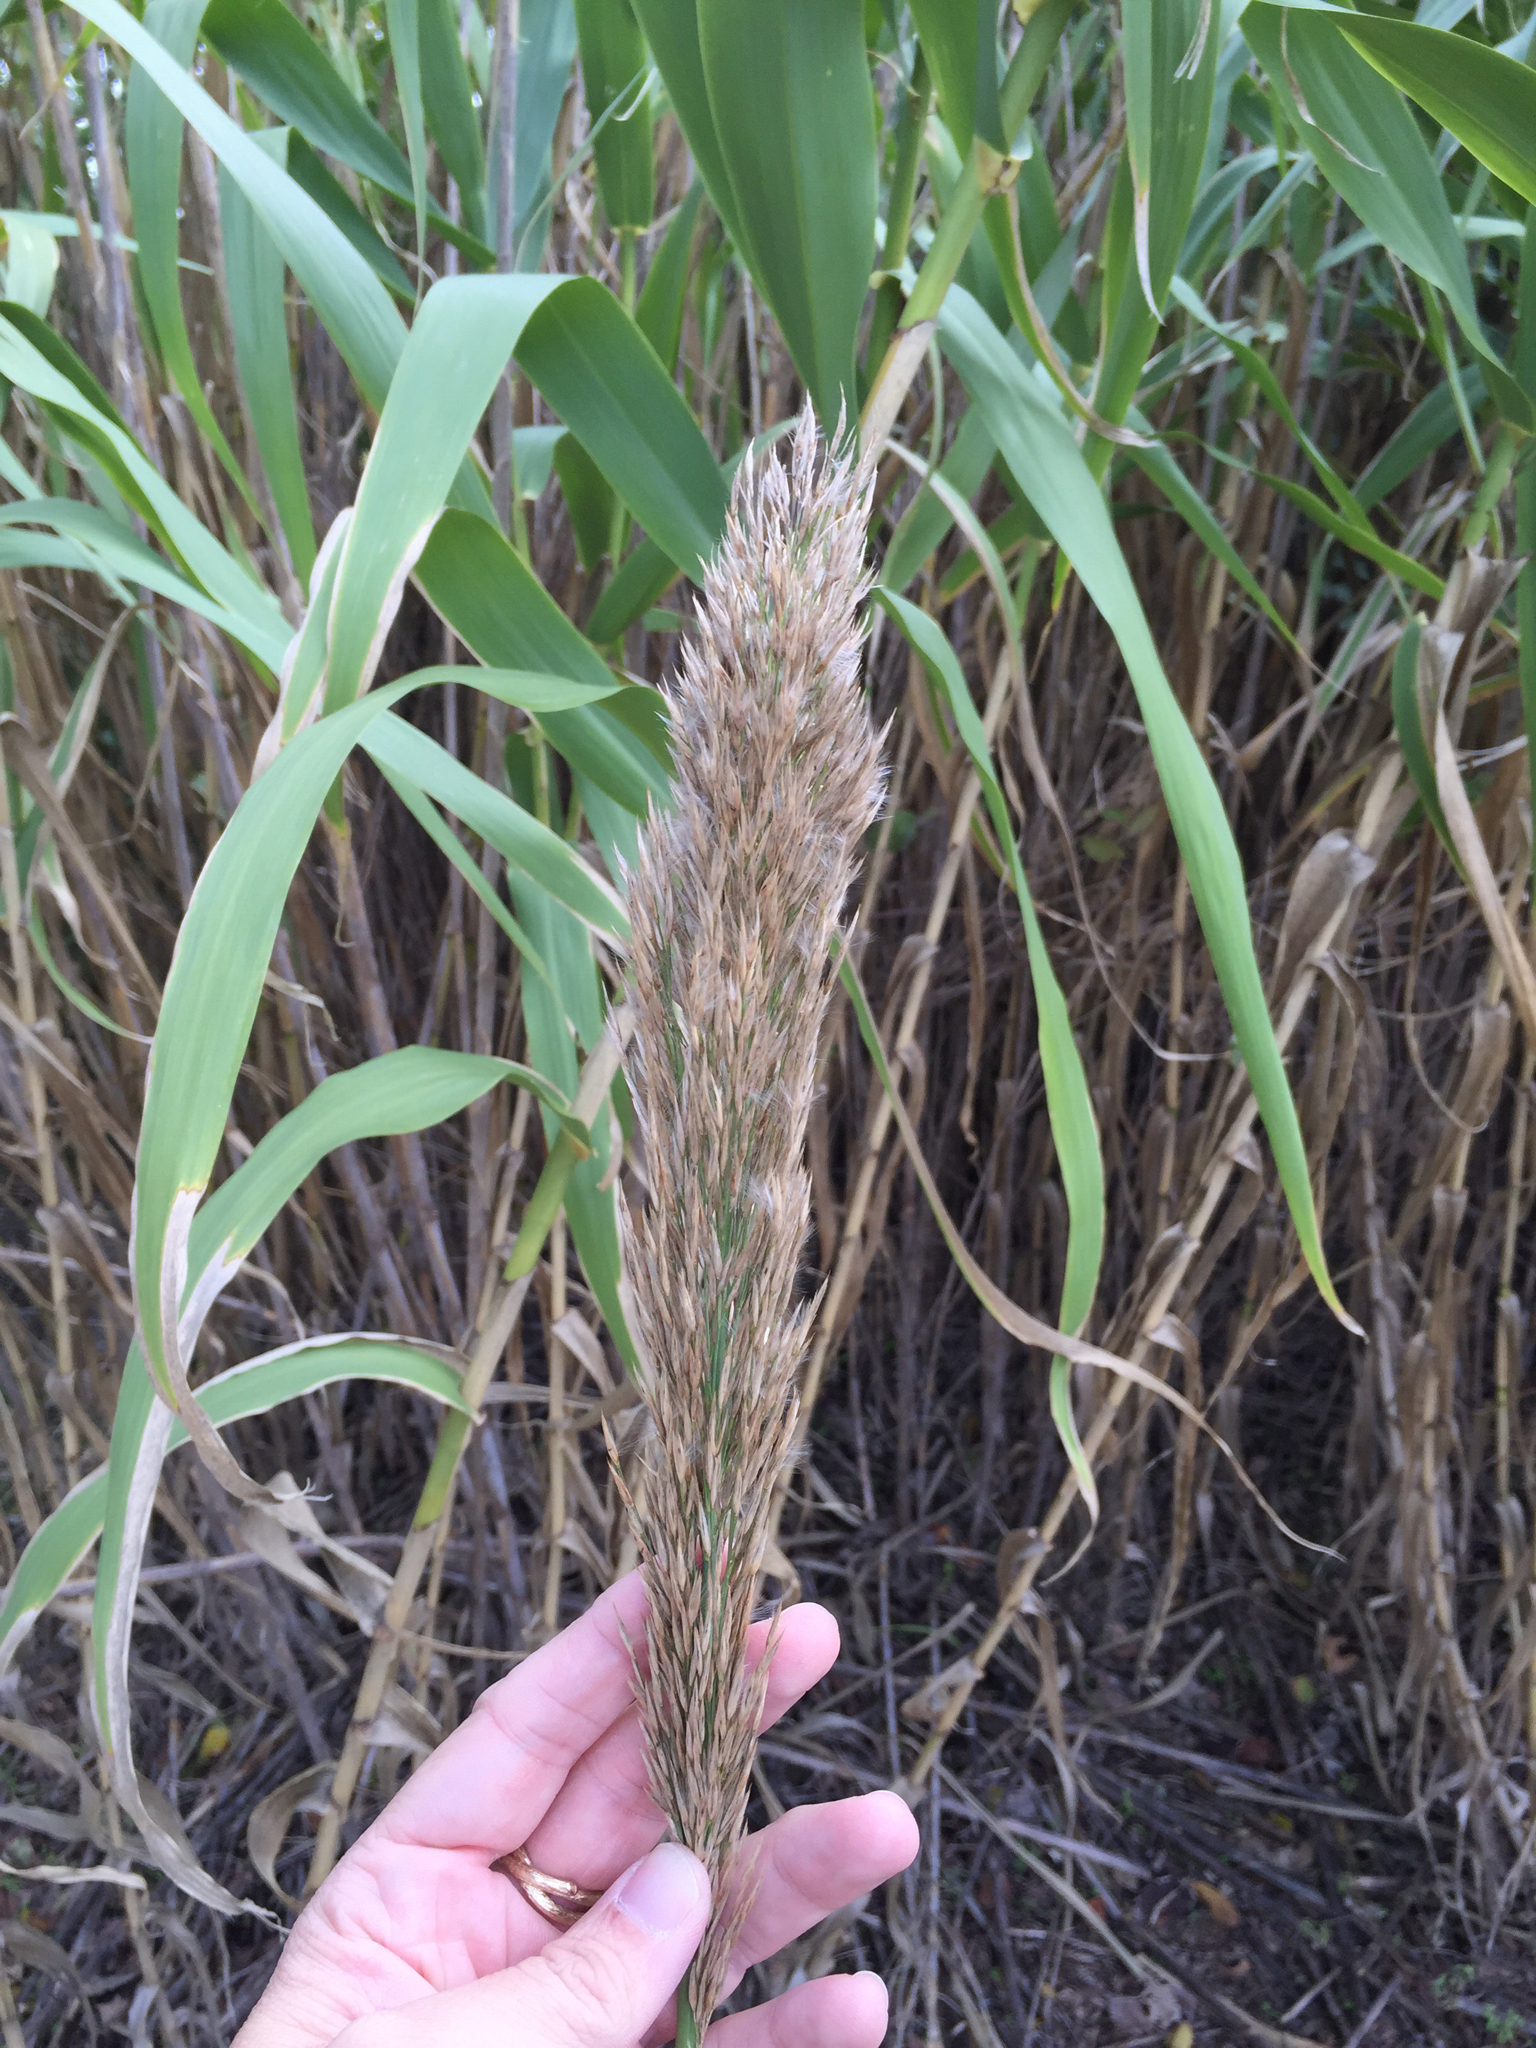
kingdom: Plantae
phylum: Tracheophyta
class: Liliopsida
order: Poales
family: Poaceae
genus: Arundo
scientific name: Arundo donax
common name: Giant reed
